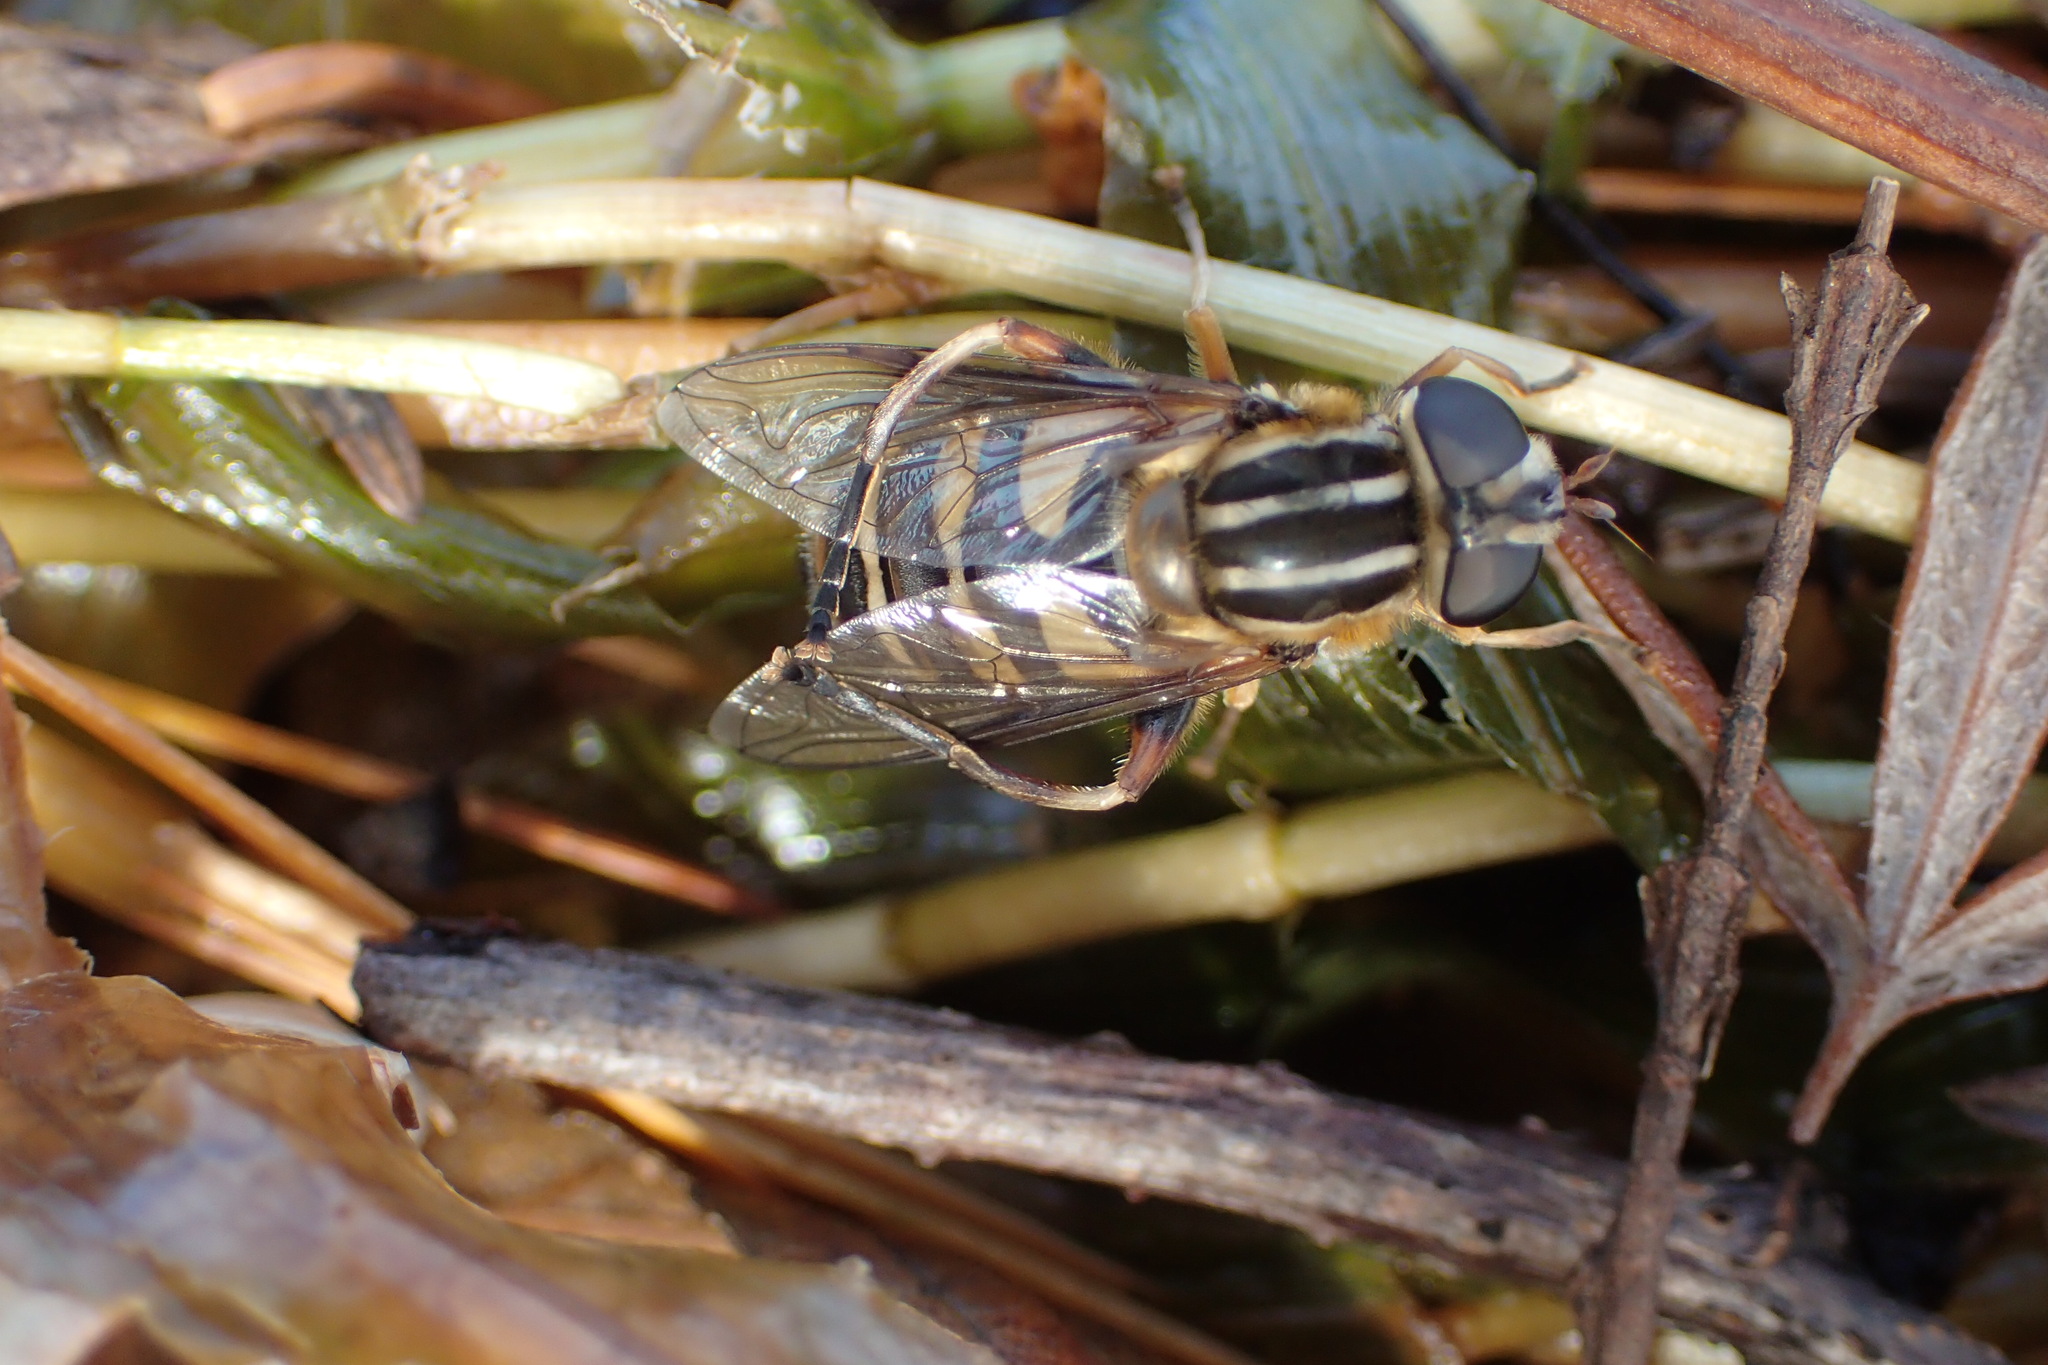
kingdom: Animalia
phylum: Arthropoda
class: Insecta
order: Diptera
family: Syrphidae
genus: Helophilus
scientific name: Helophilus fasciatus
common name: Narrow-headed marsh fly
